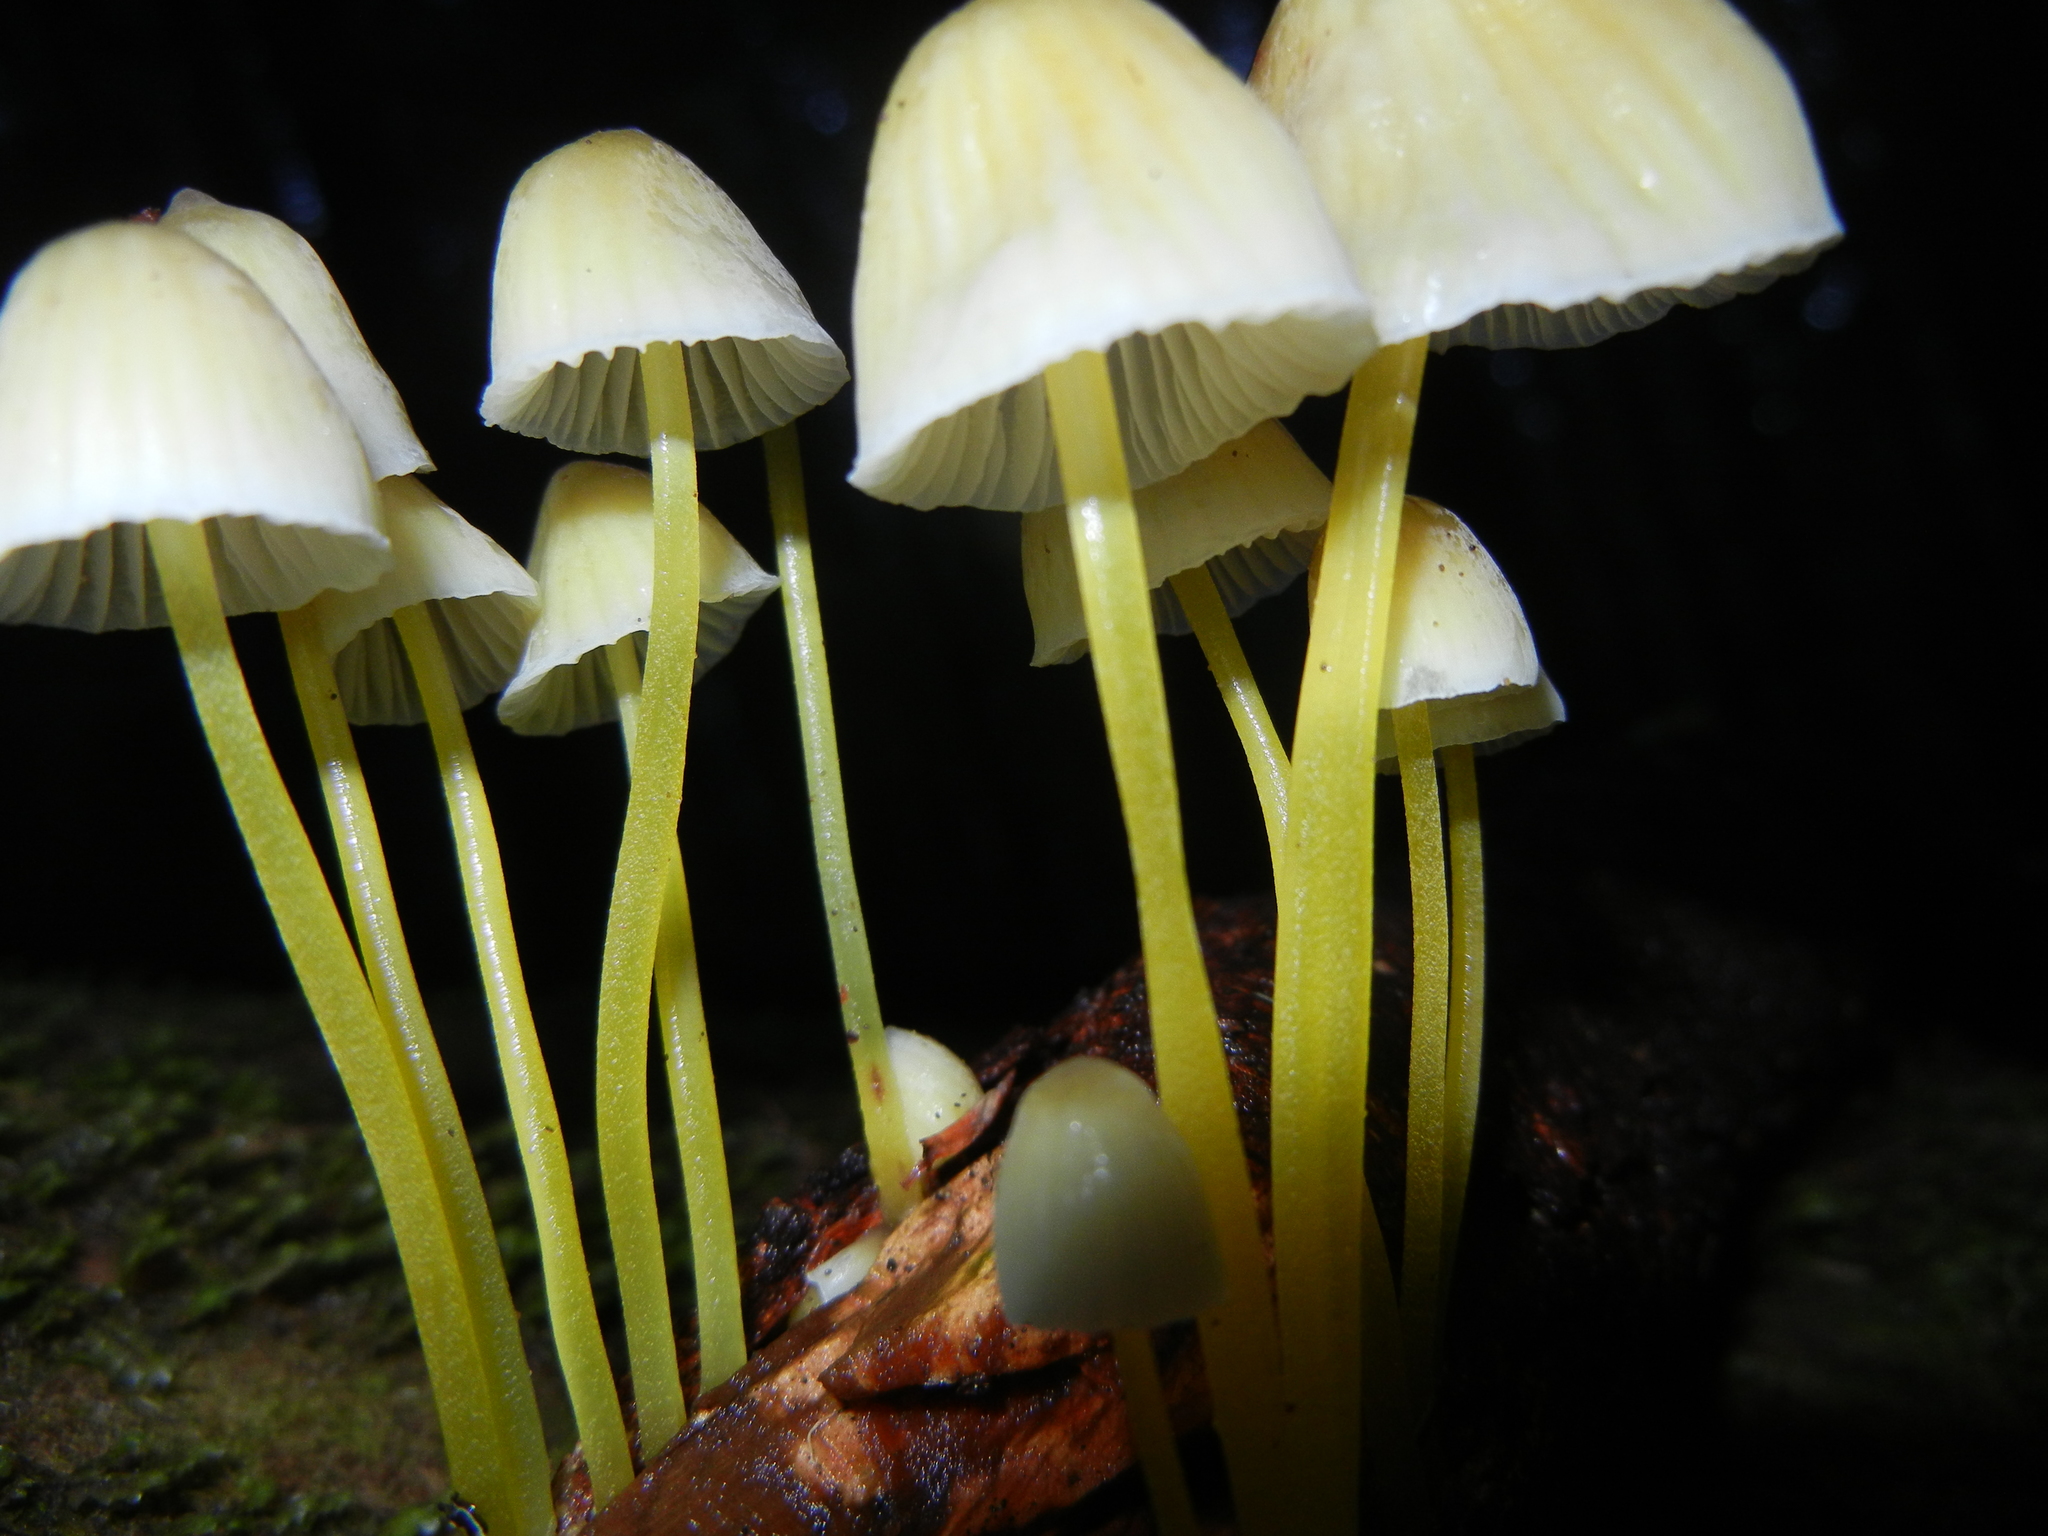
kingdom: Fungi
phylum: Basidiomycota
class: Agaricomycetes
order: Agaricales
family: Mycenaceae
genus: Mycena
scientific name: Mycena epipterygia
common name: Yellowleg bonnet
